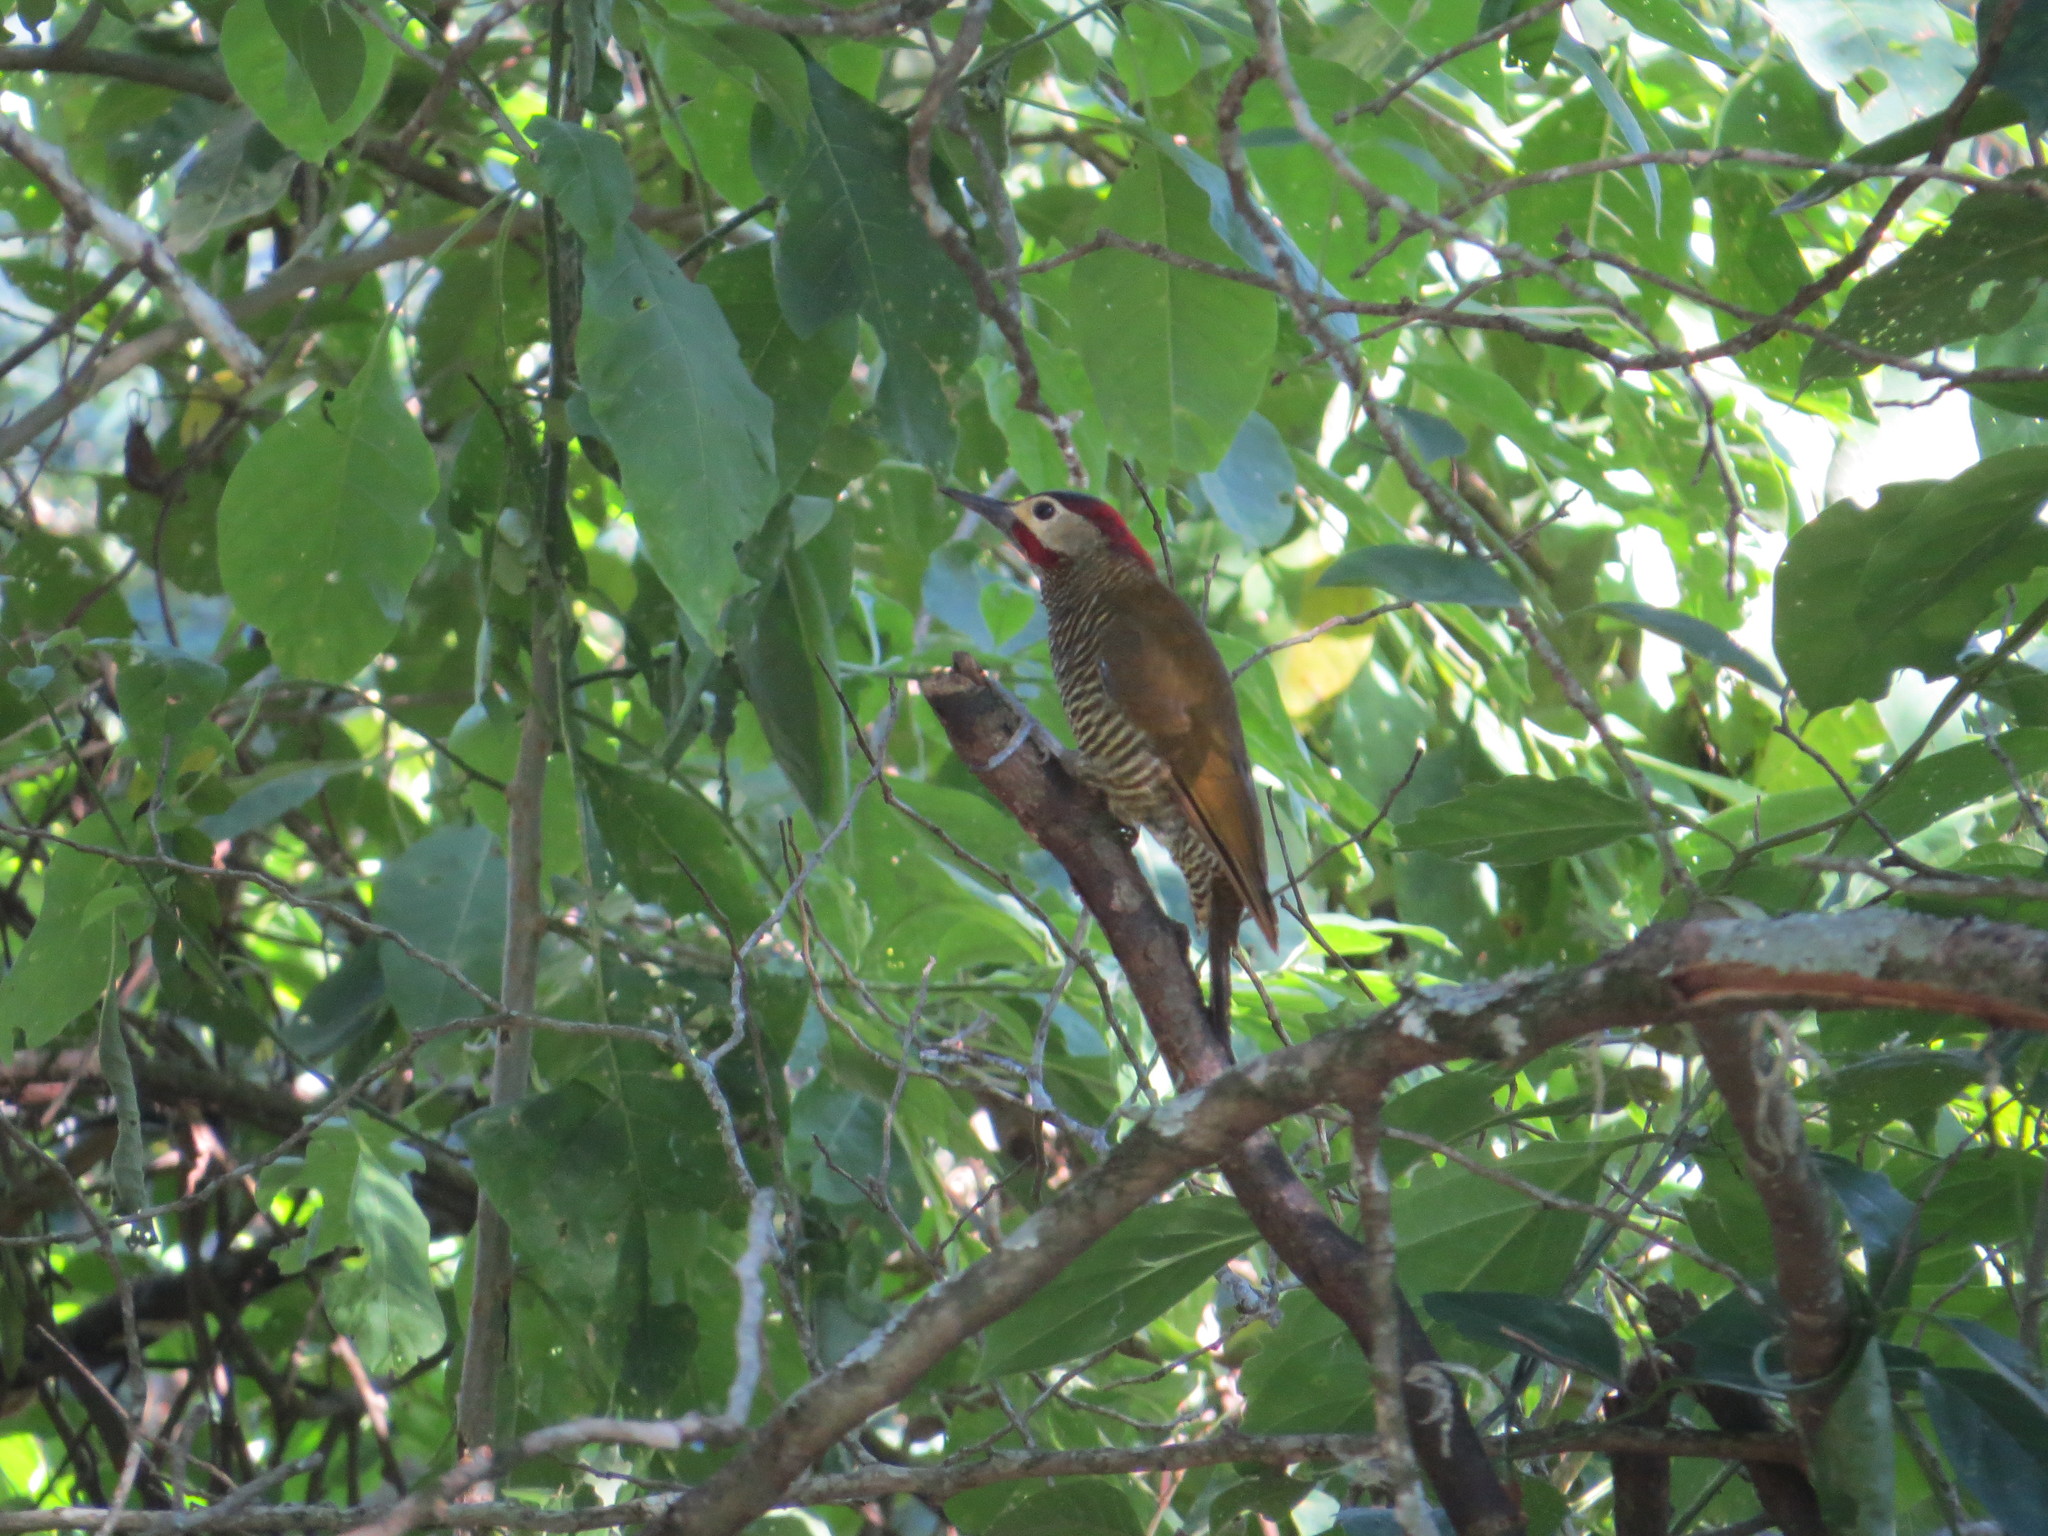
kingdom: Animalia
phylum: Chordata
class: Aves
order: Piciformes
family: Picidae
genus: Colaptes
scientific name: Colaptes rubiginosus
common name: Golden-olive woodpecker
